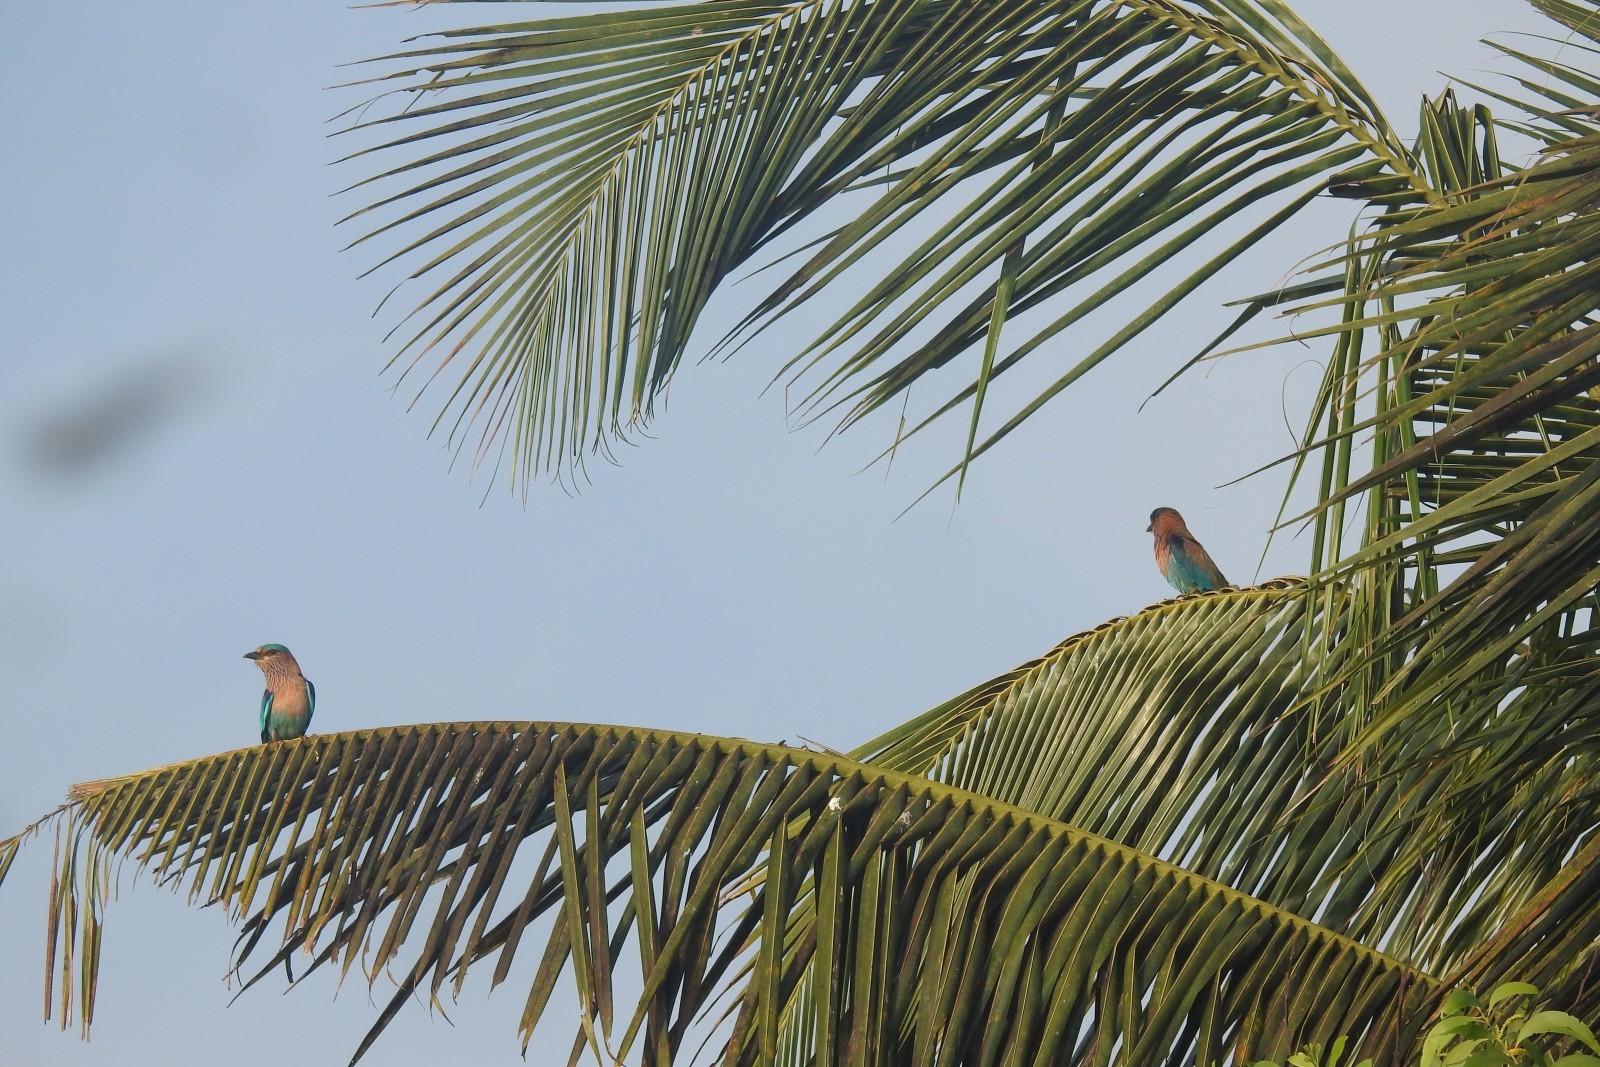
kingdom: Animalia
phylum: Chordata
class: Aves
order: Coraciiformes
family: Coraciidae
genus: Coracias
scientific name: Coracias benghalensis
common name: Indian roller
